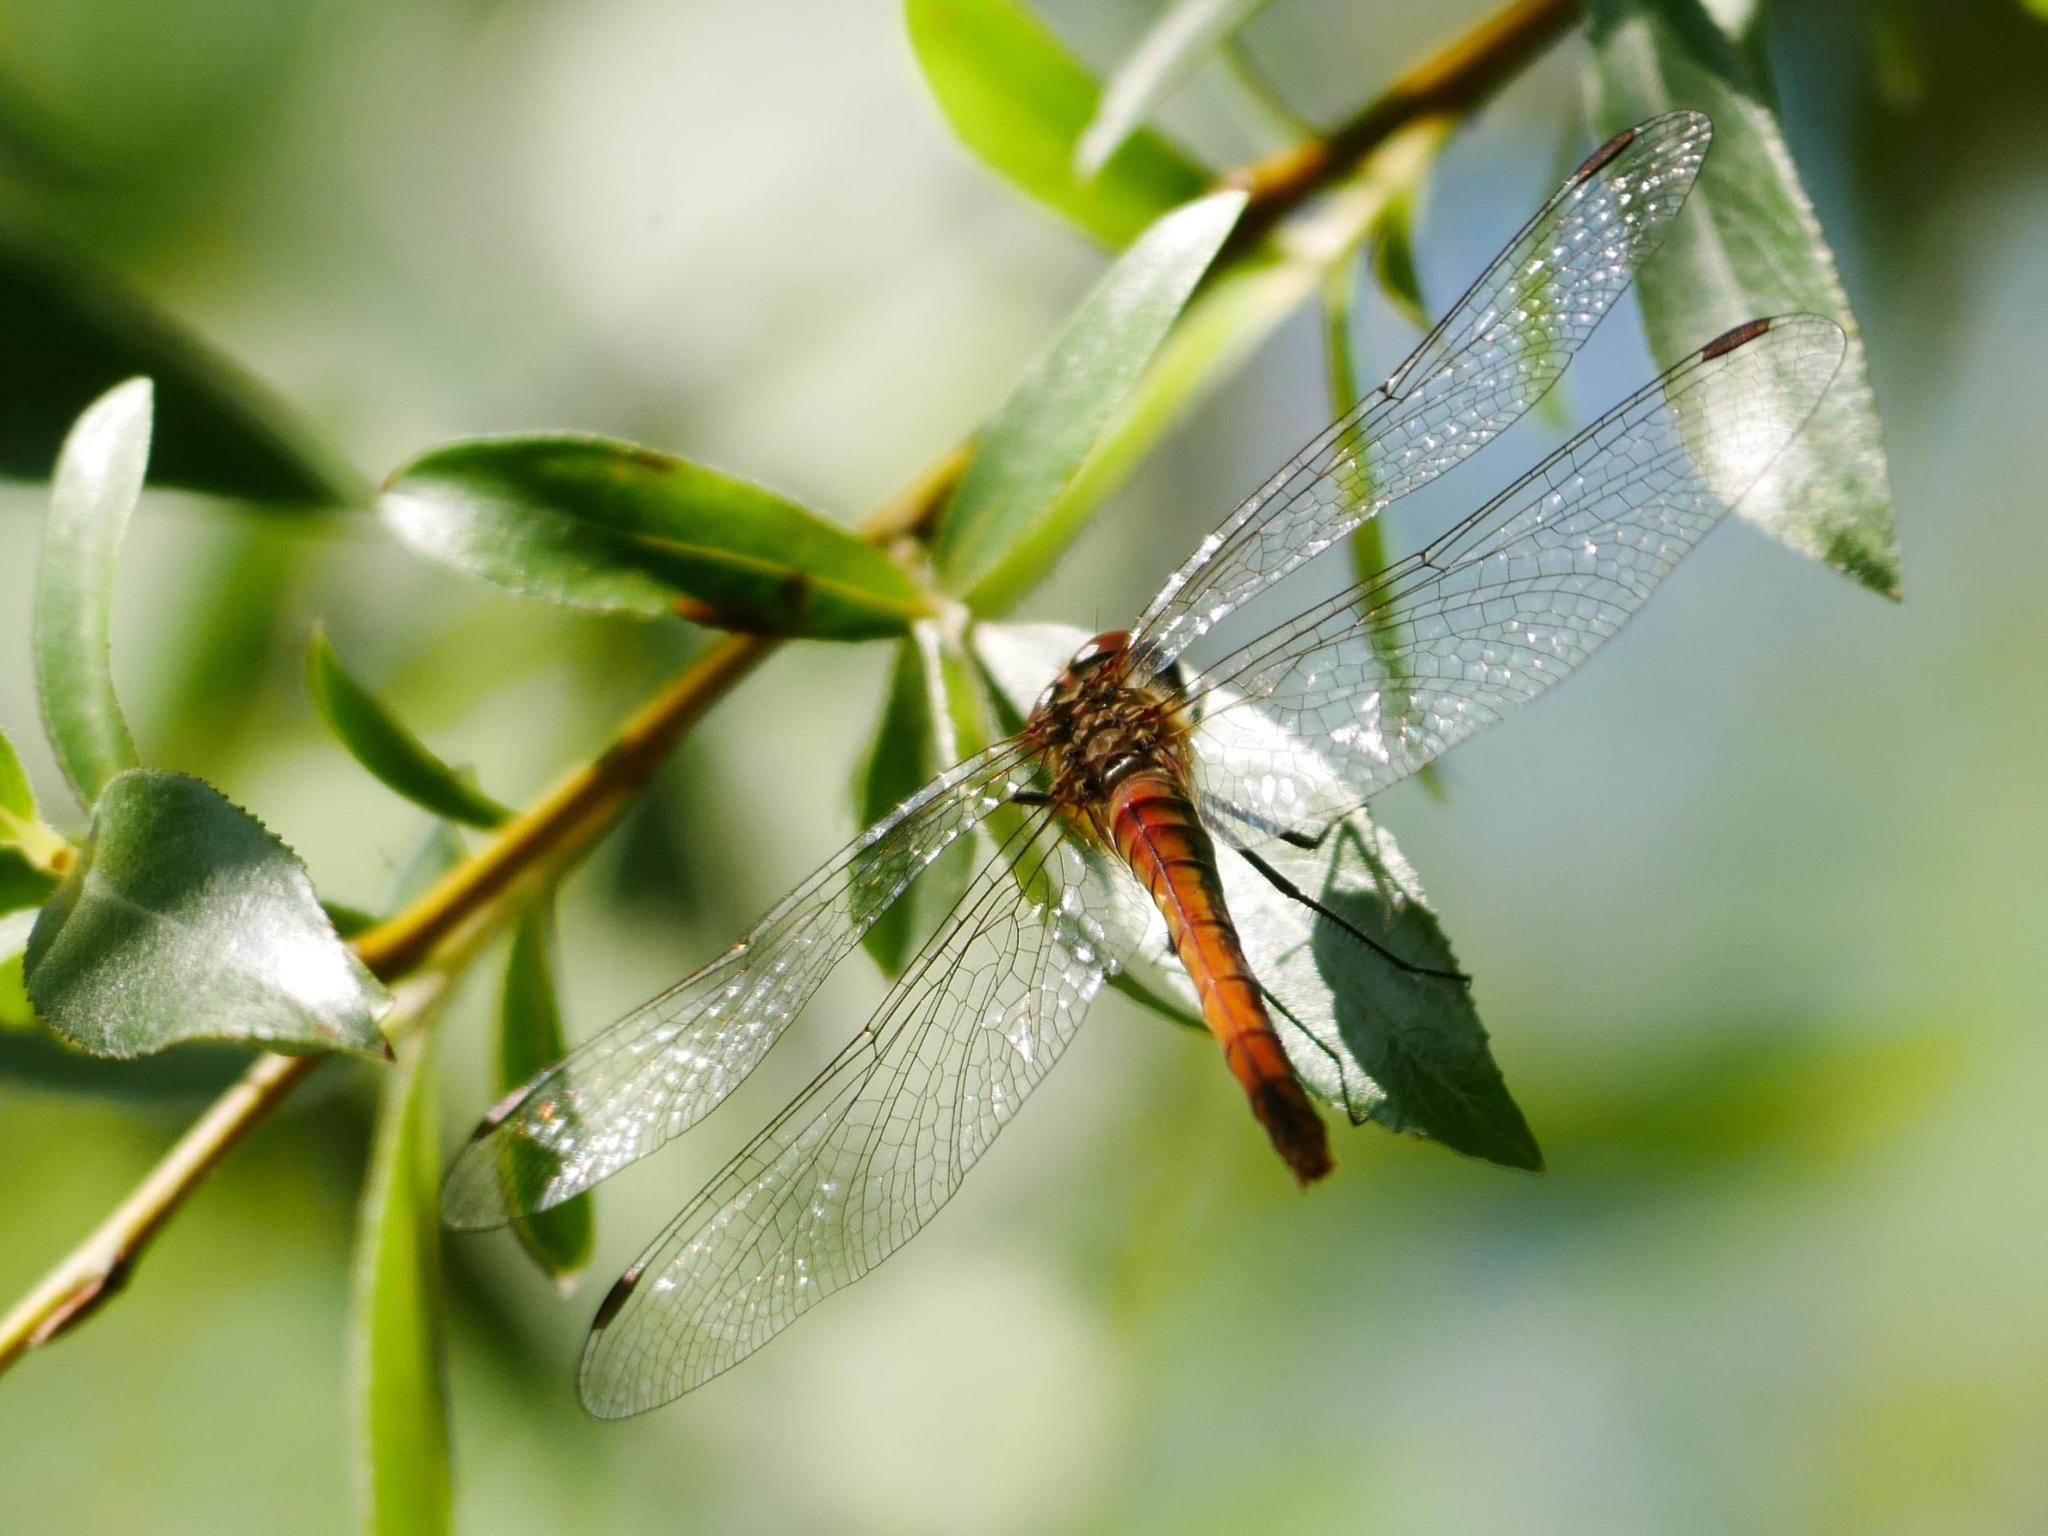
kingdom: Animalia
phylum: Arthropoda
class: Insecta
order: Odonata
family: Libellulidae
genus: Sympetrum
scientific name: Sympetrum sanguineum
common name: Ruddy darter
